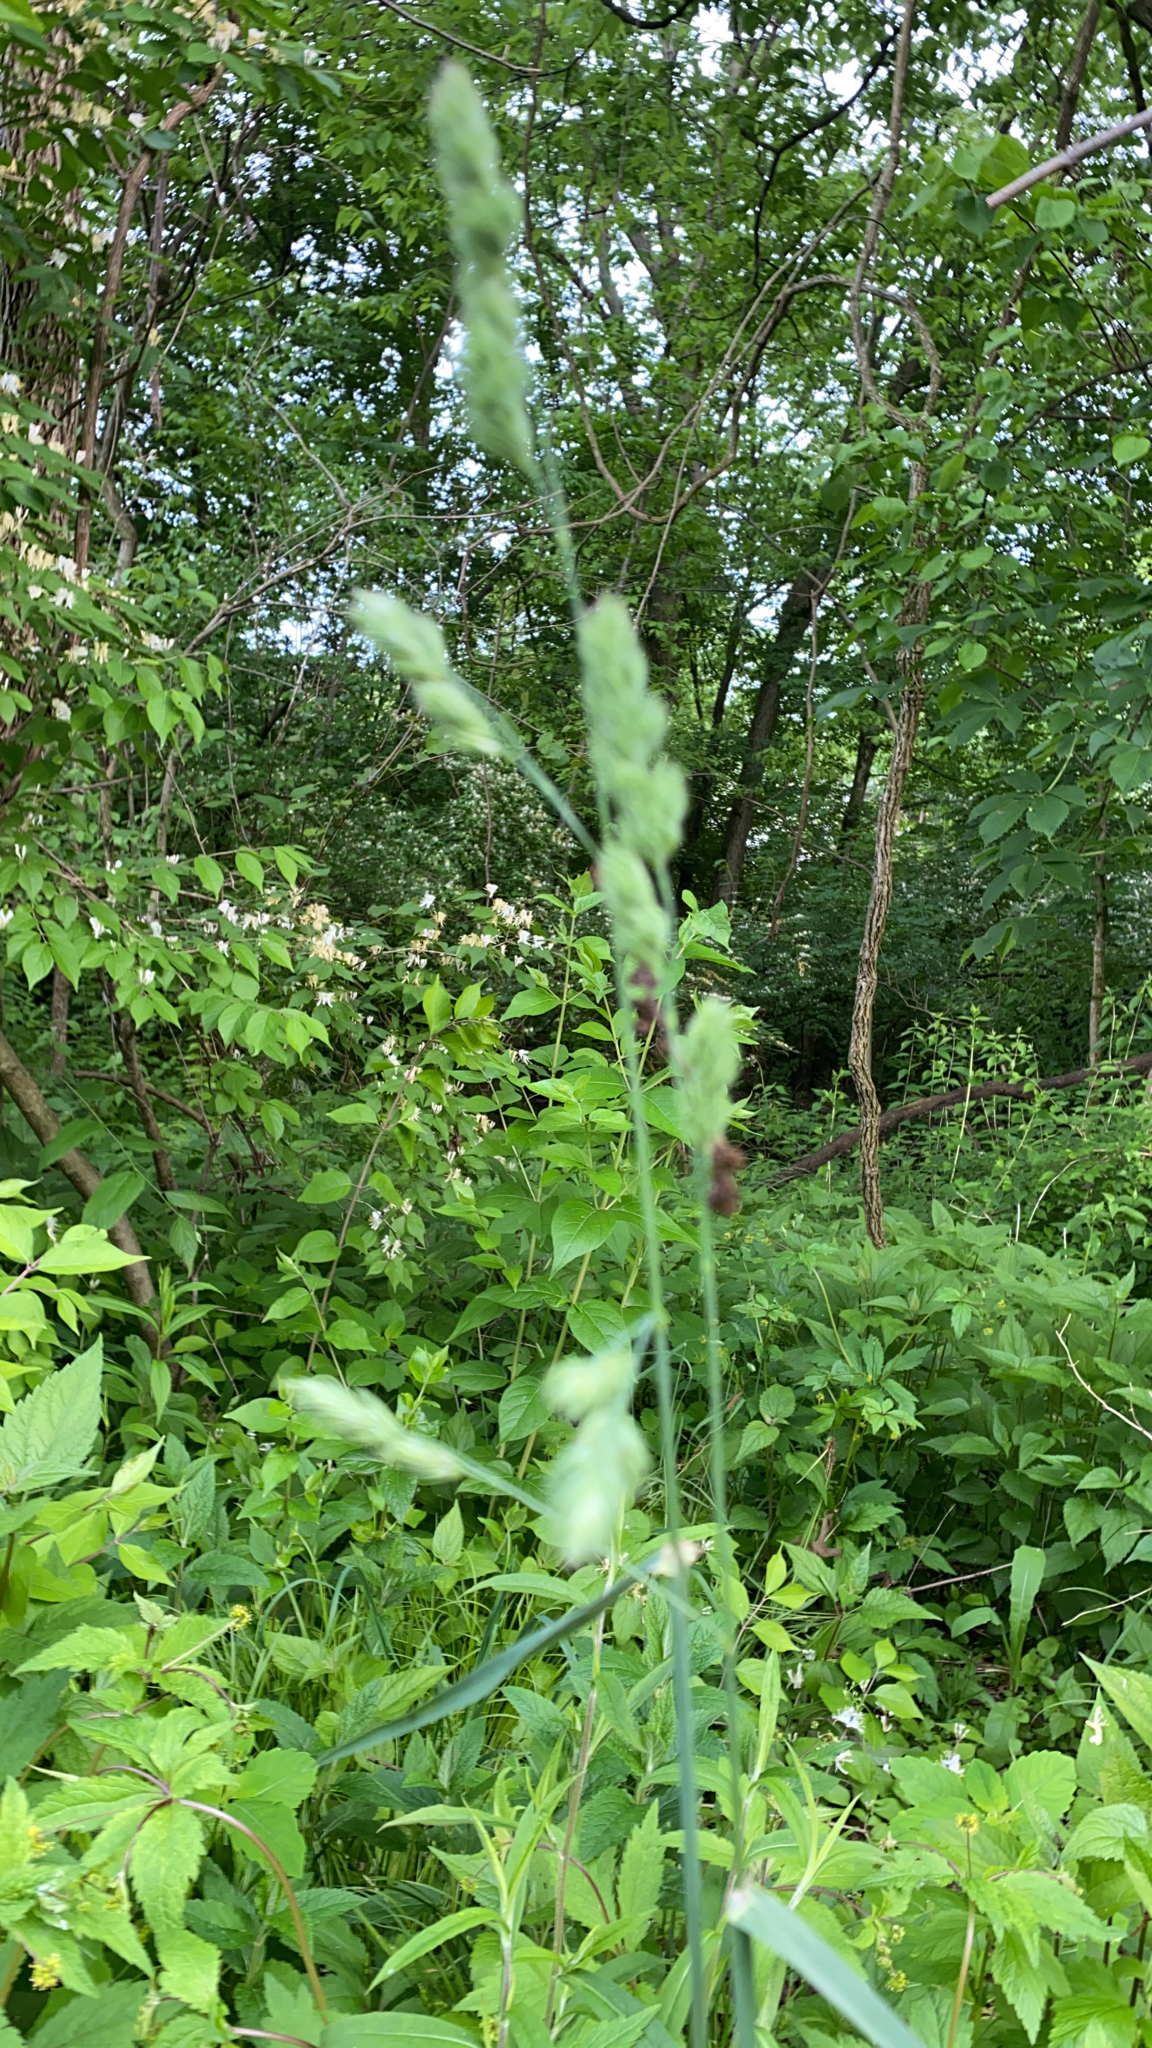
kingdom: Plantae
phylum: Tracheophyta
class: Liliopsida
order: Poales
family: Poaceae
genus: Dactylis
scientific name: Dactylis glomerata
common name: Orchardgrass
